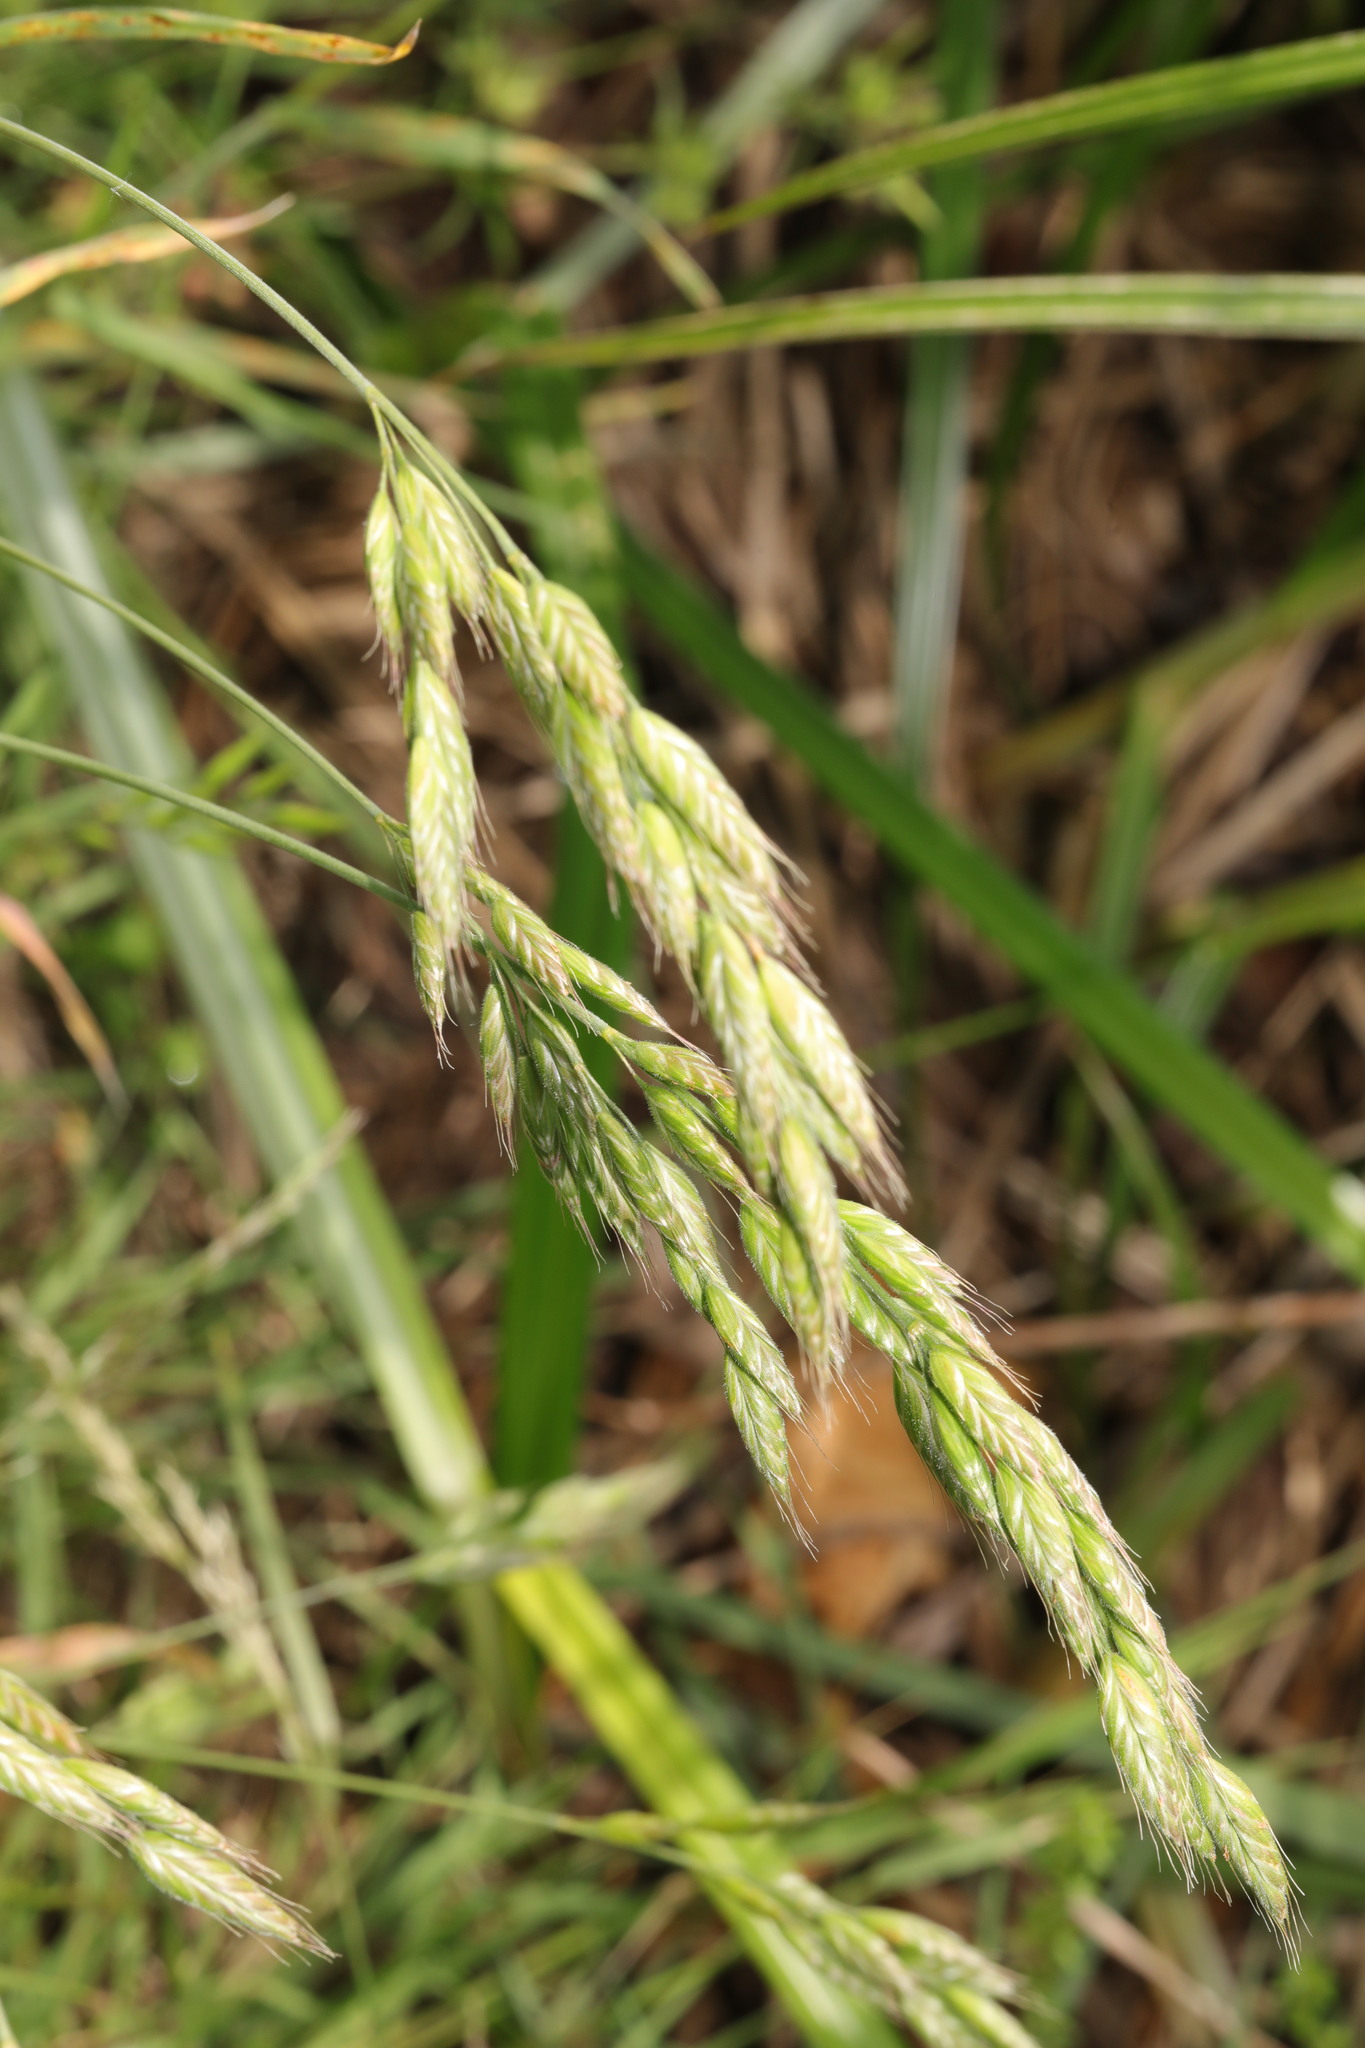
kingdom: Plantae
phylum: Tracheophyta
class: Liliopsida
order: Poales
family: Poaceae
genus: Bromus
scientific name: Bromus hordeaceus
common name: Soft brome
